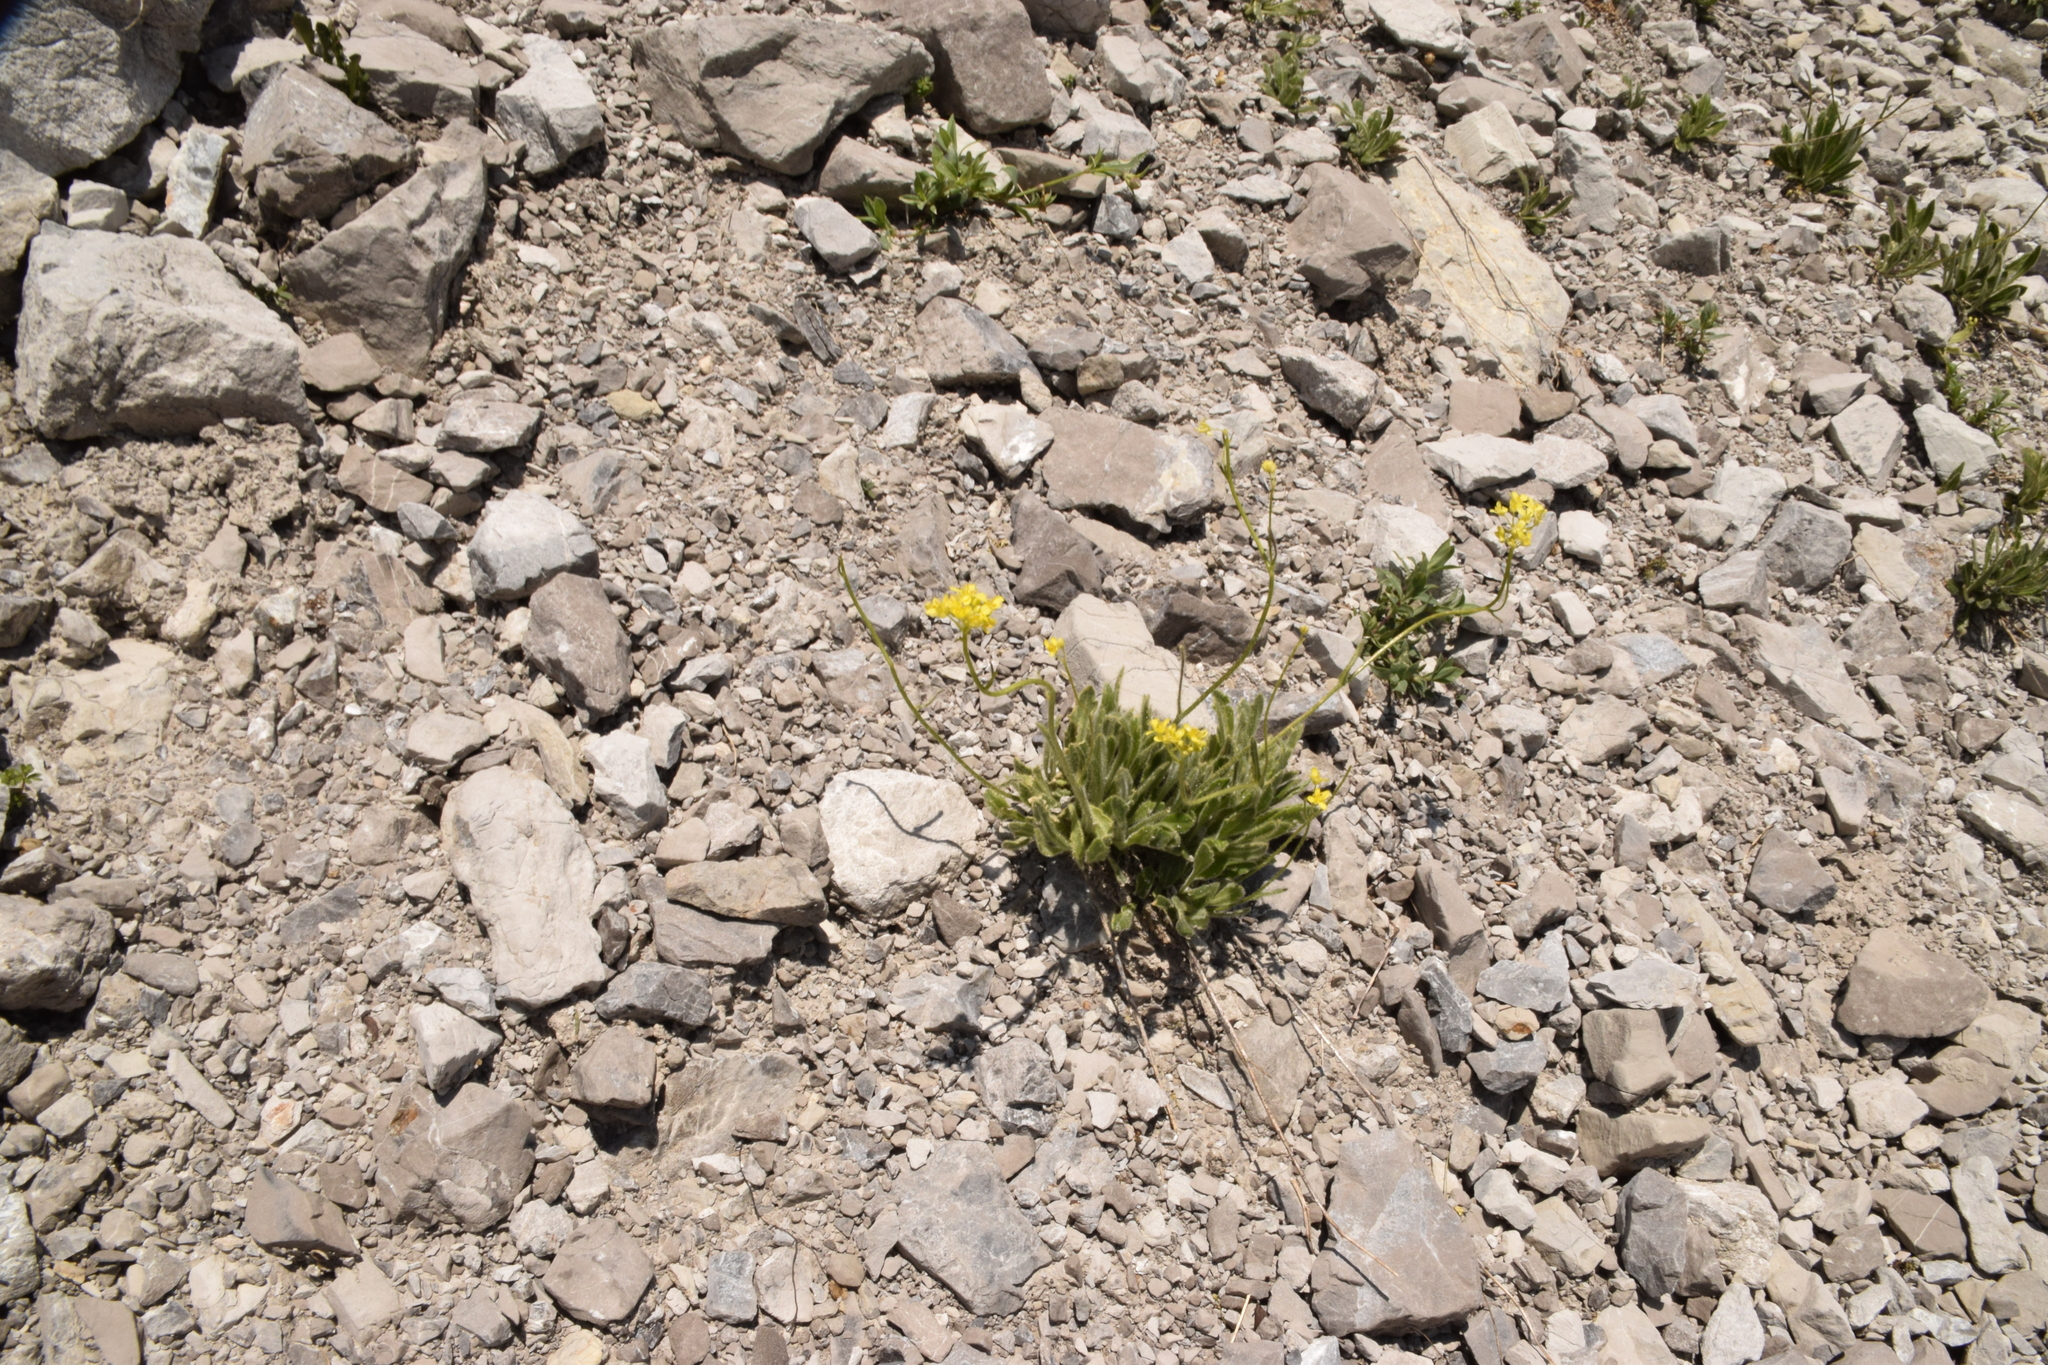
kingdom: Plantae
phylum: Tracheophyta
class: Magnoliopsida
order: Brassicales
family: Brassicaceae
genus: Biscutella
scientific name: Biscutella laevigata
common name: Buckler mustard
